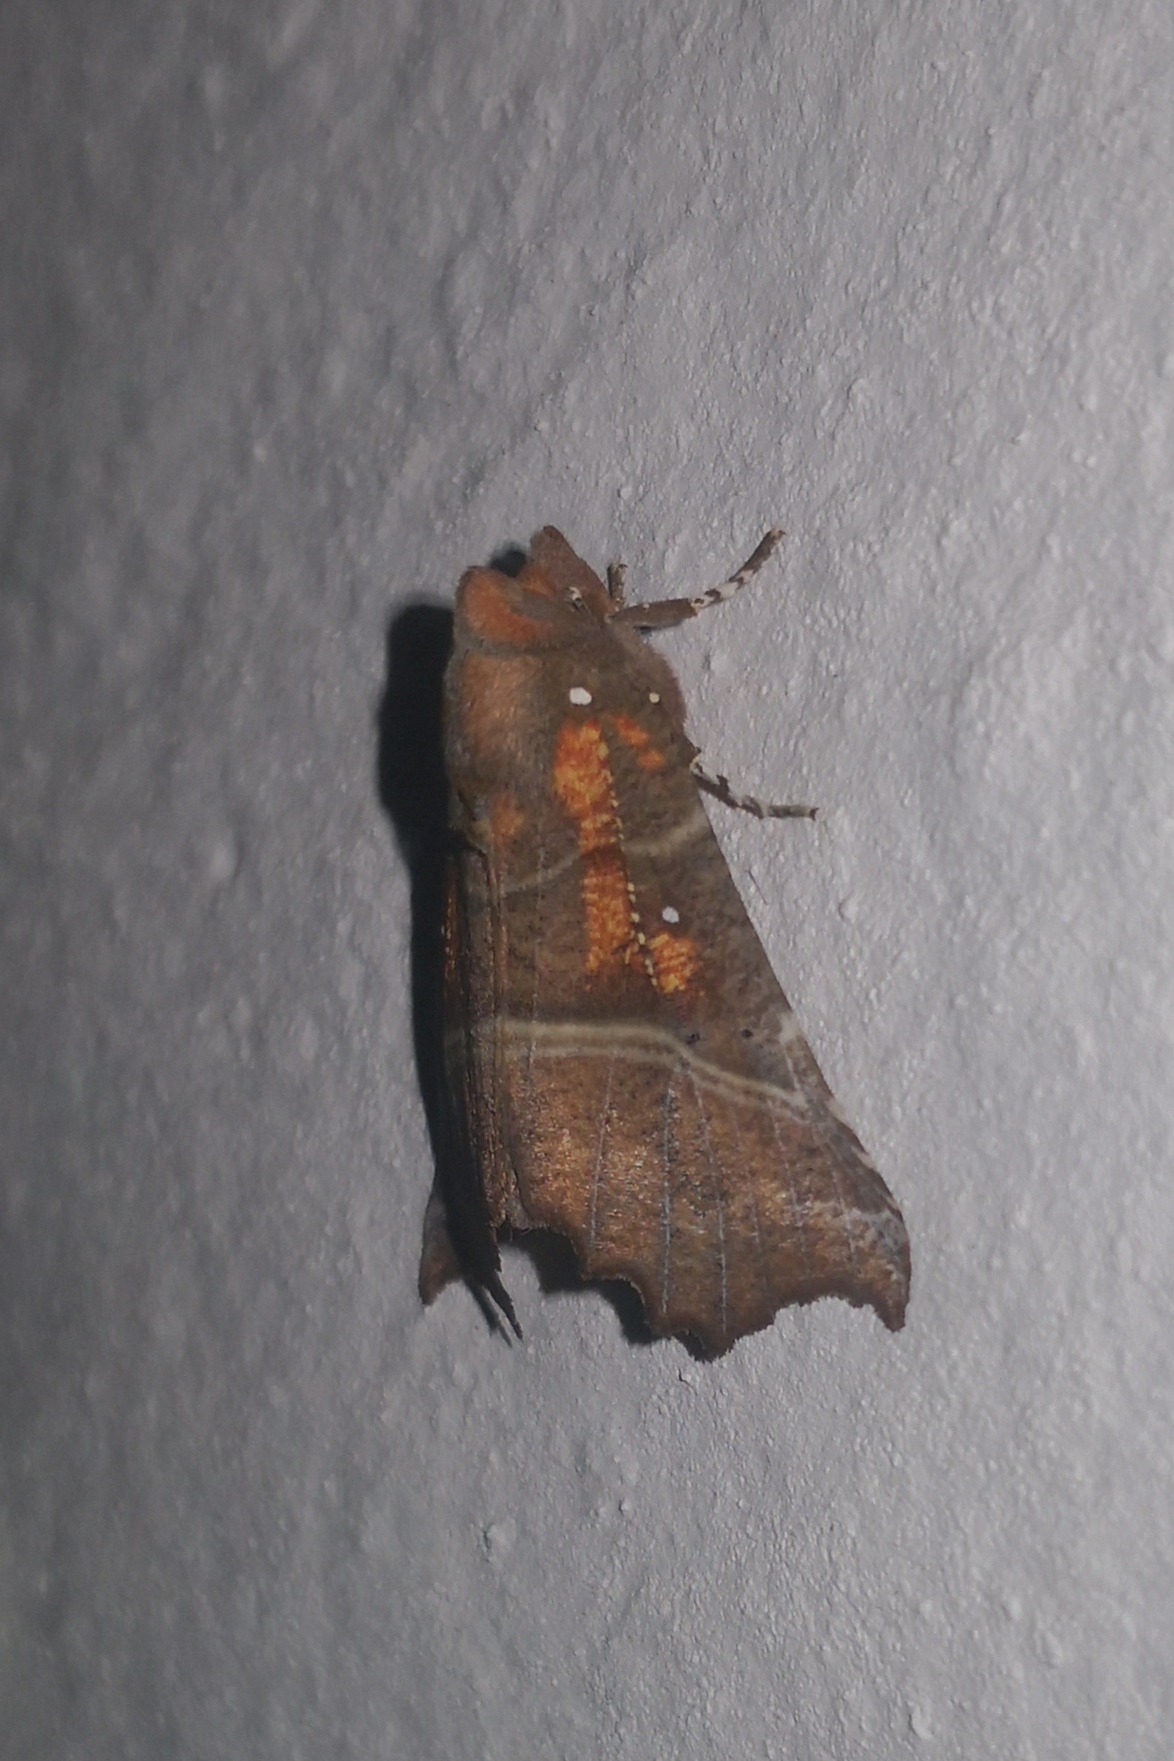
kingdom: Animalia
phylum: Arthropoda
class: Insecta
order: Lepidoptera
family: Erebidae
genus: Scoliopteryx
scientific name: Scoliopteryx libatrix
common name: Herald
